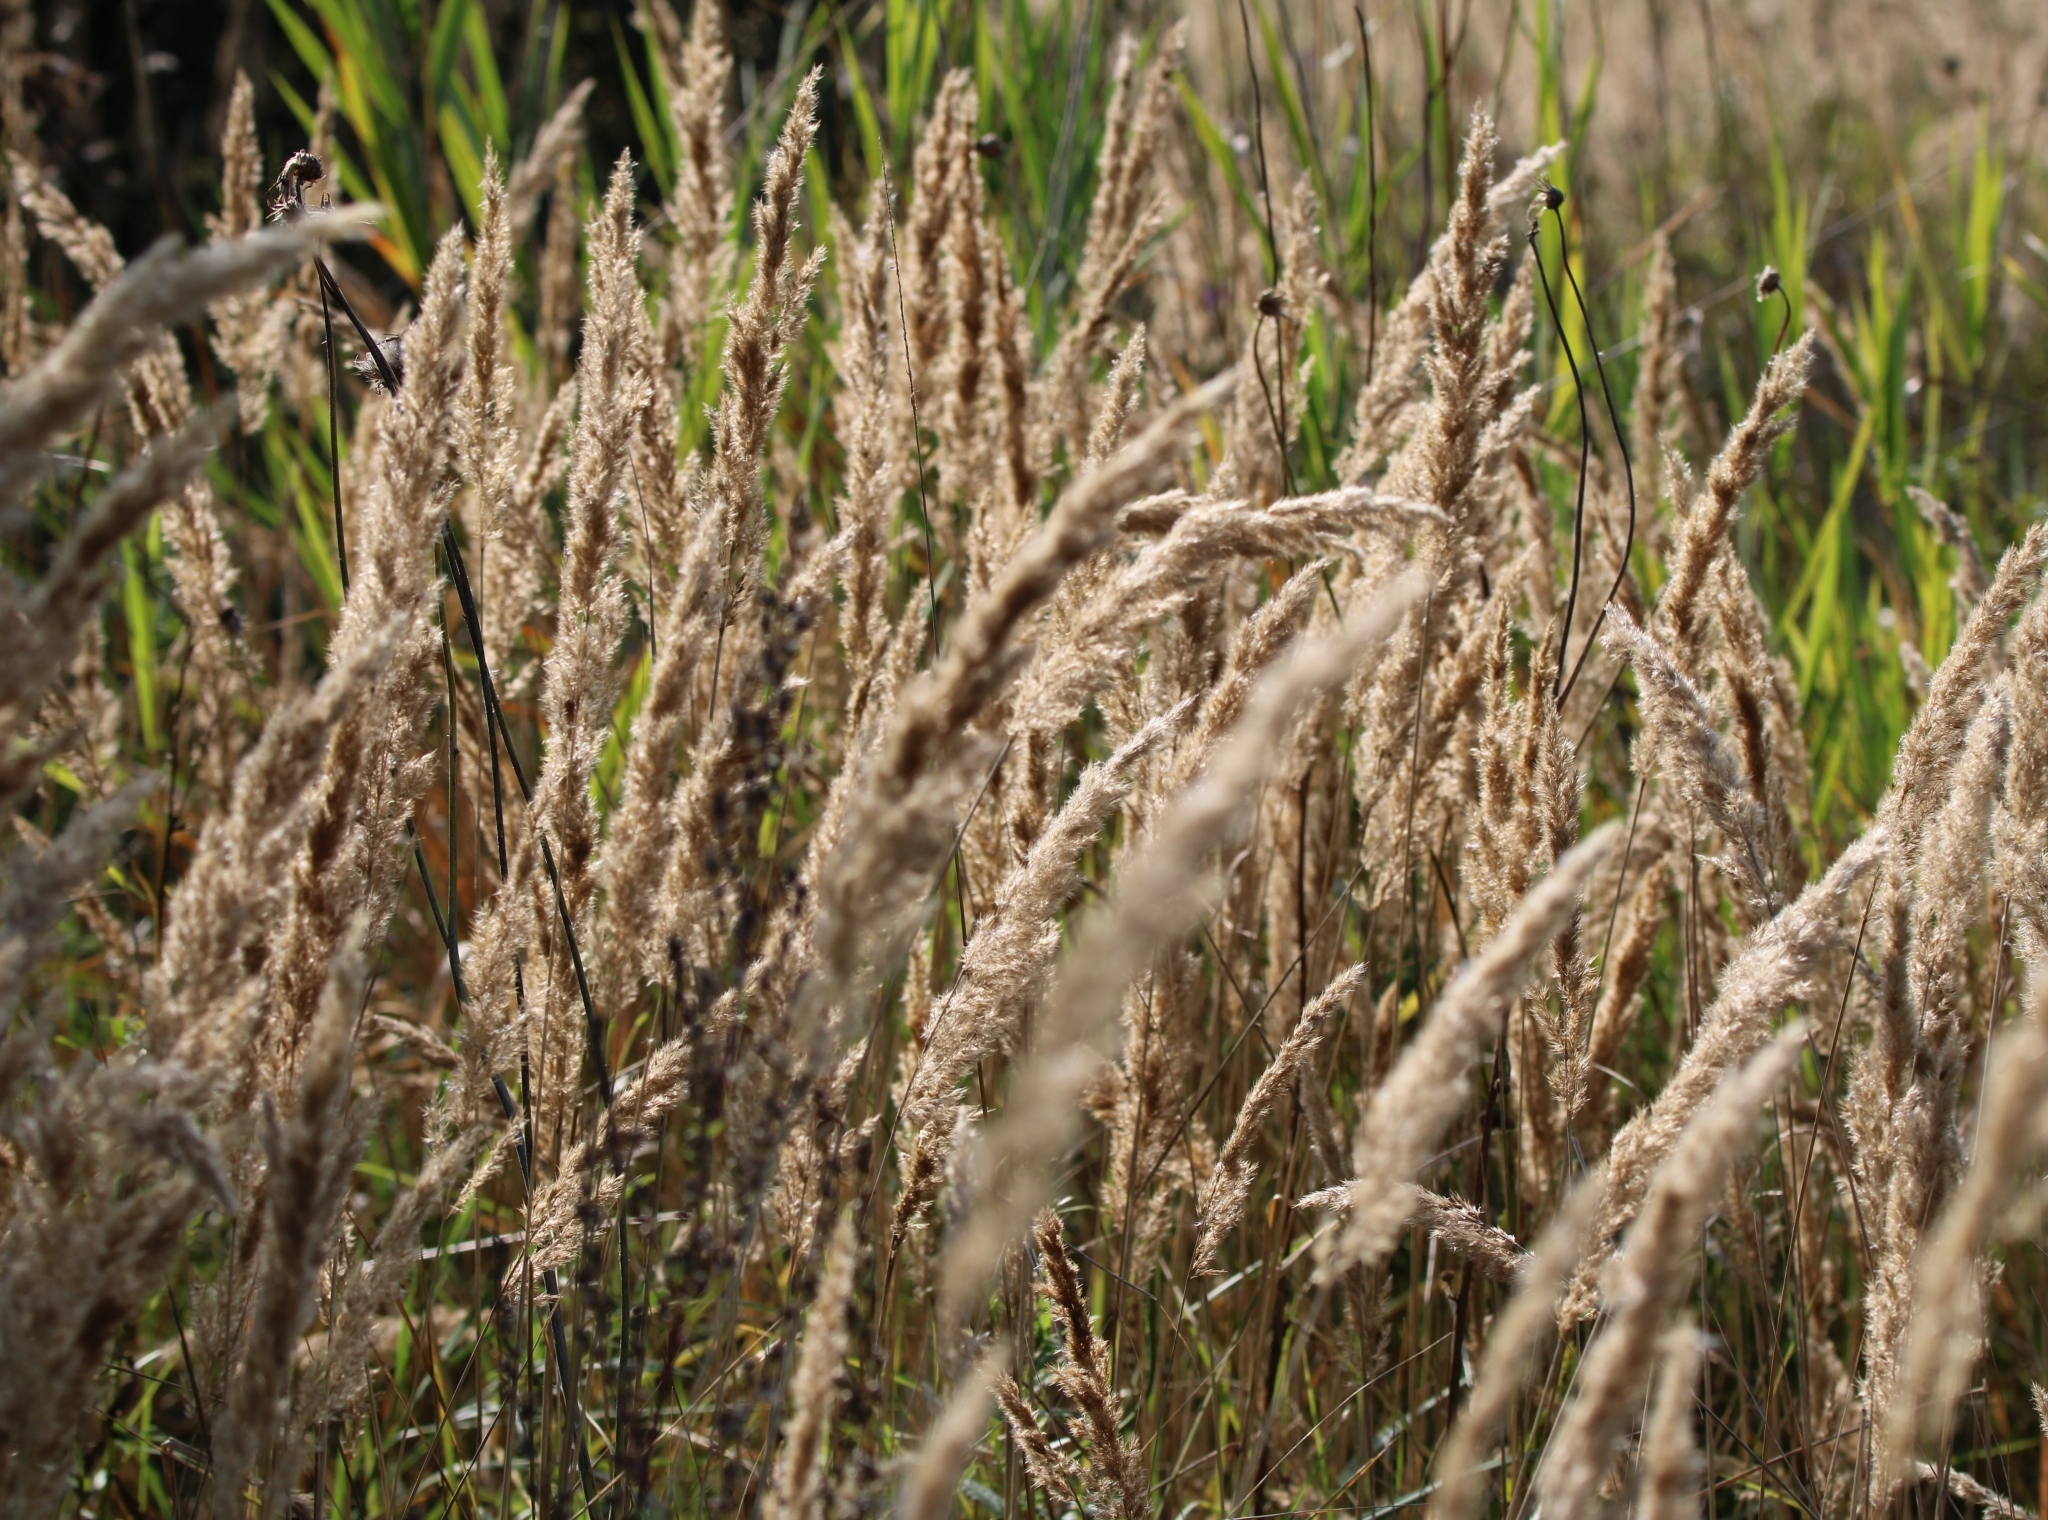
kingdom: Plantae
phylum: Tracheophyta
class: Liliopsida
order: Poales
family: Poaceae
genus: Calamagrostis
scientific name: Calamagrostis epigejos
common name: Wood small-reed
